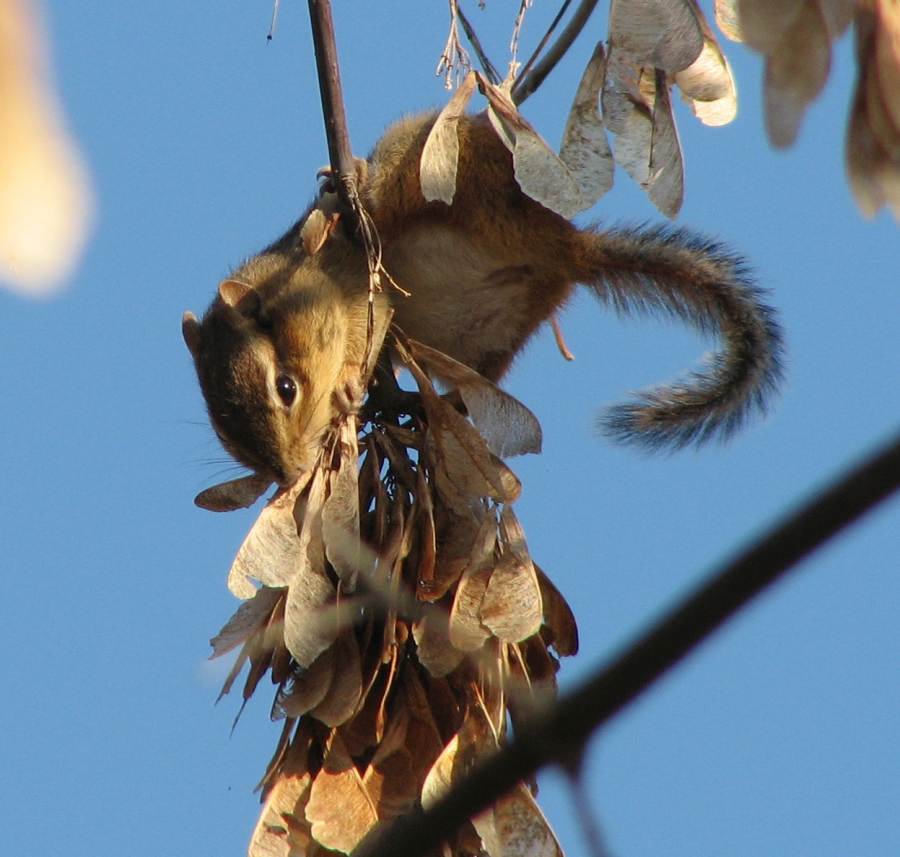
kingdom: Animalia
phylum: Chordata
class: Mammalia
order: Rodentia
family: Sciuridae
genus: Tamias
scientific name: Tamias striatus
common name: Eastern chipmunk
